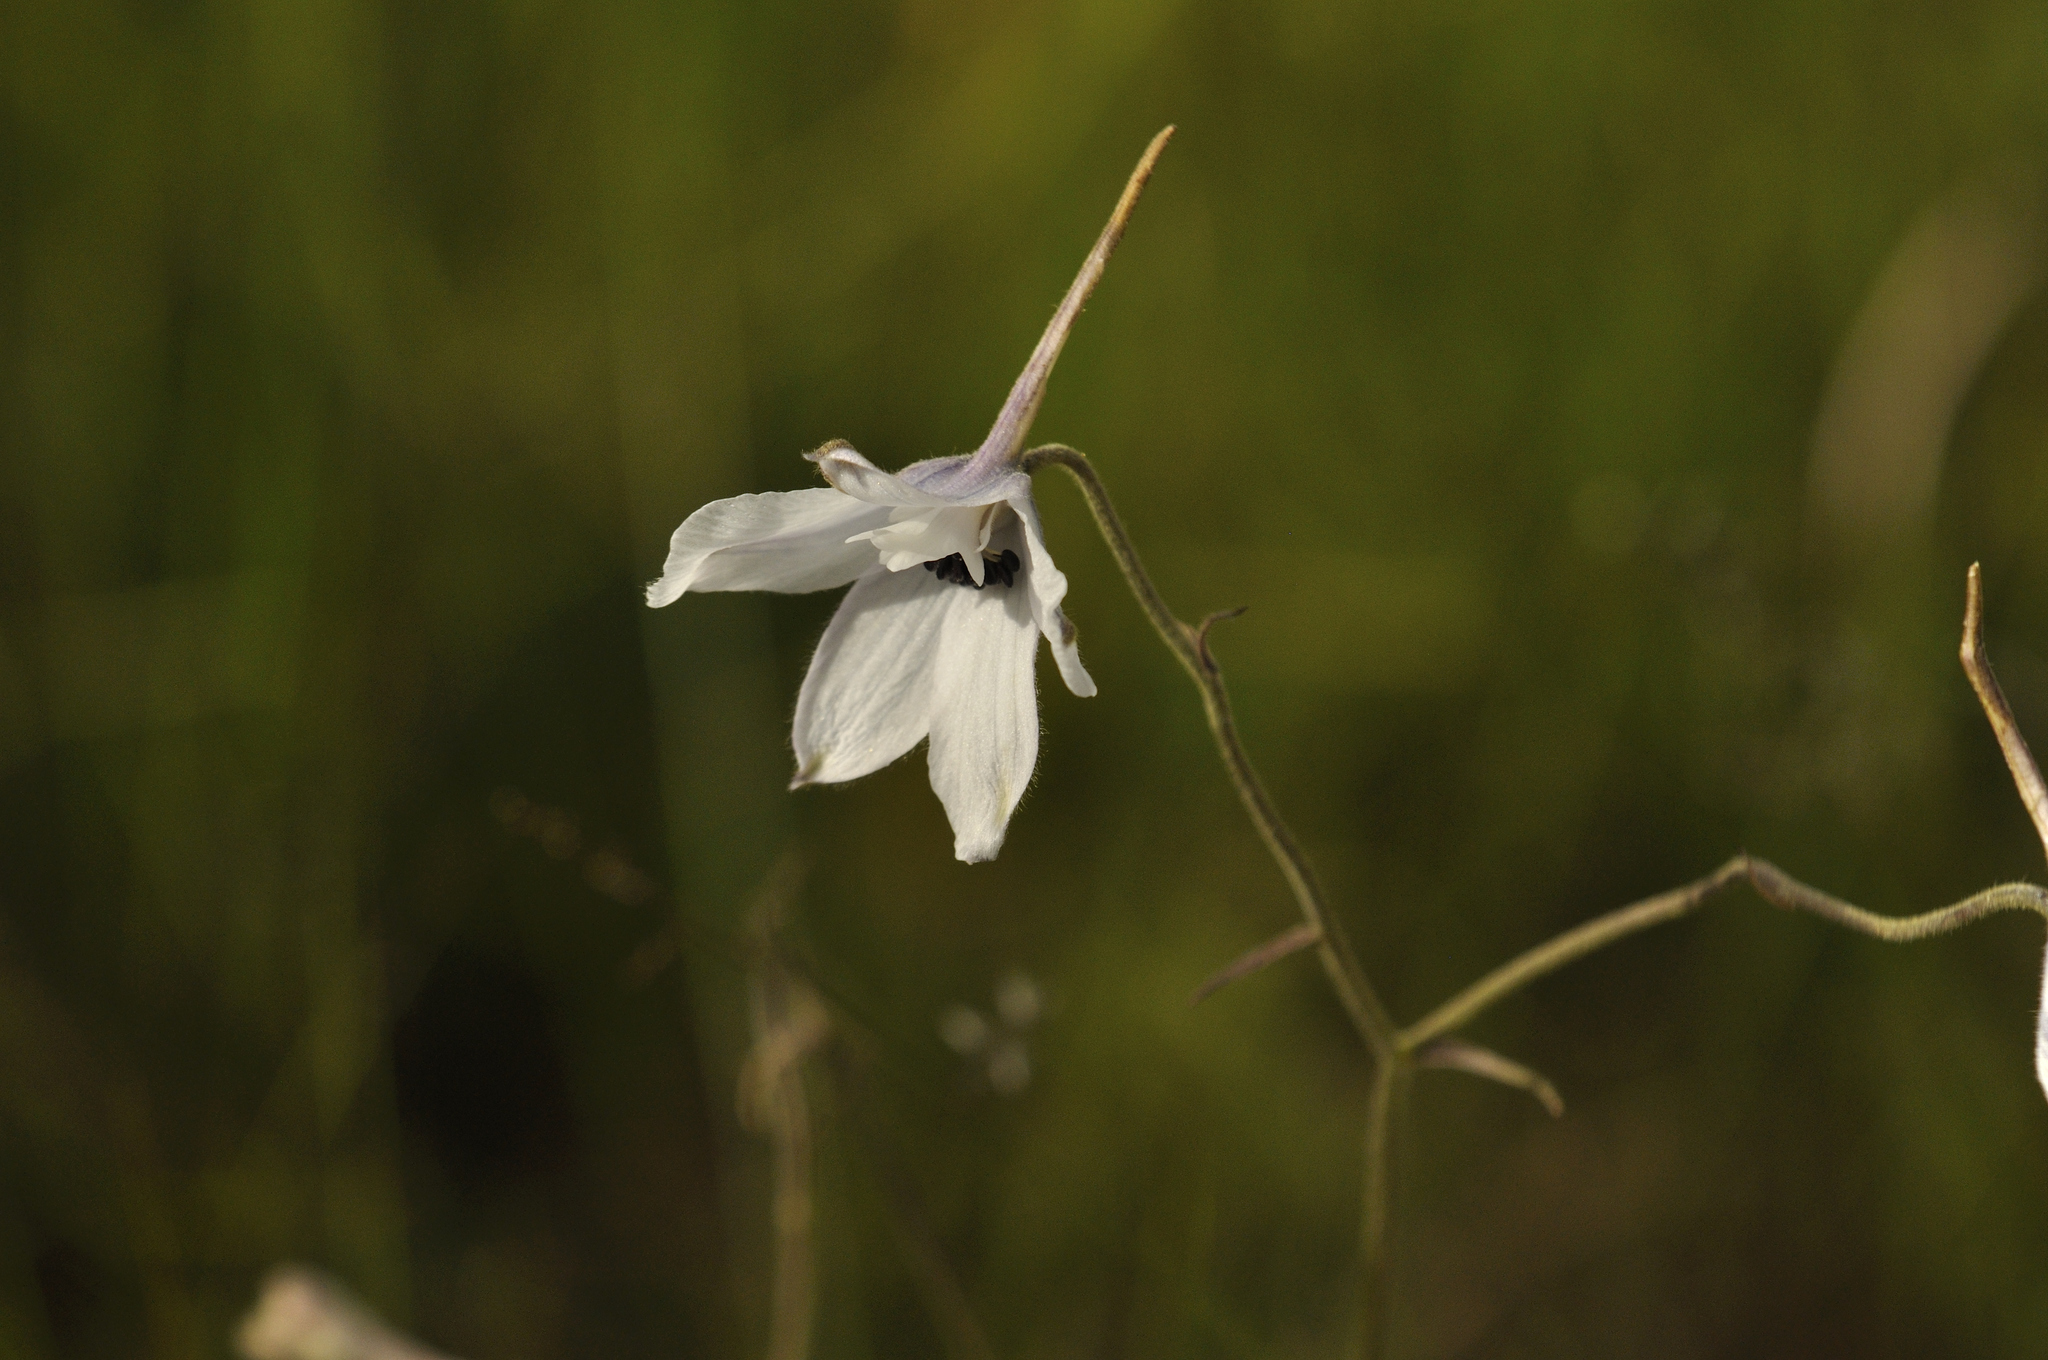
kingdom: Plantae
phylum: Tracheophyta
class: Magnoliopsida
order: Ranunculales
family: Ranunculaceae
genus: Delphinium
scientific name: Delphinium leroyi
